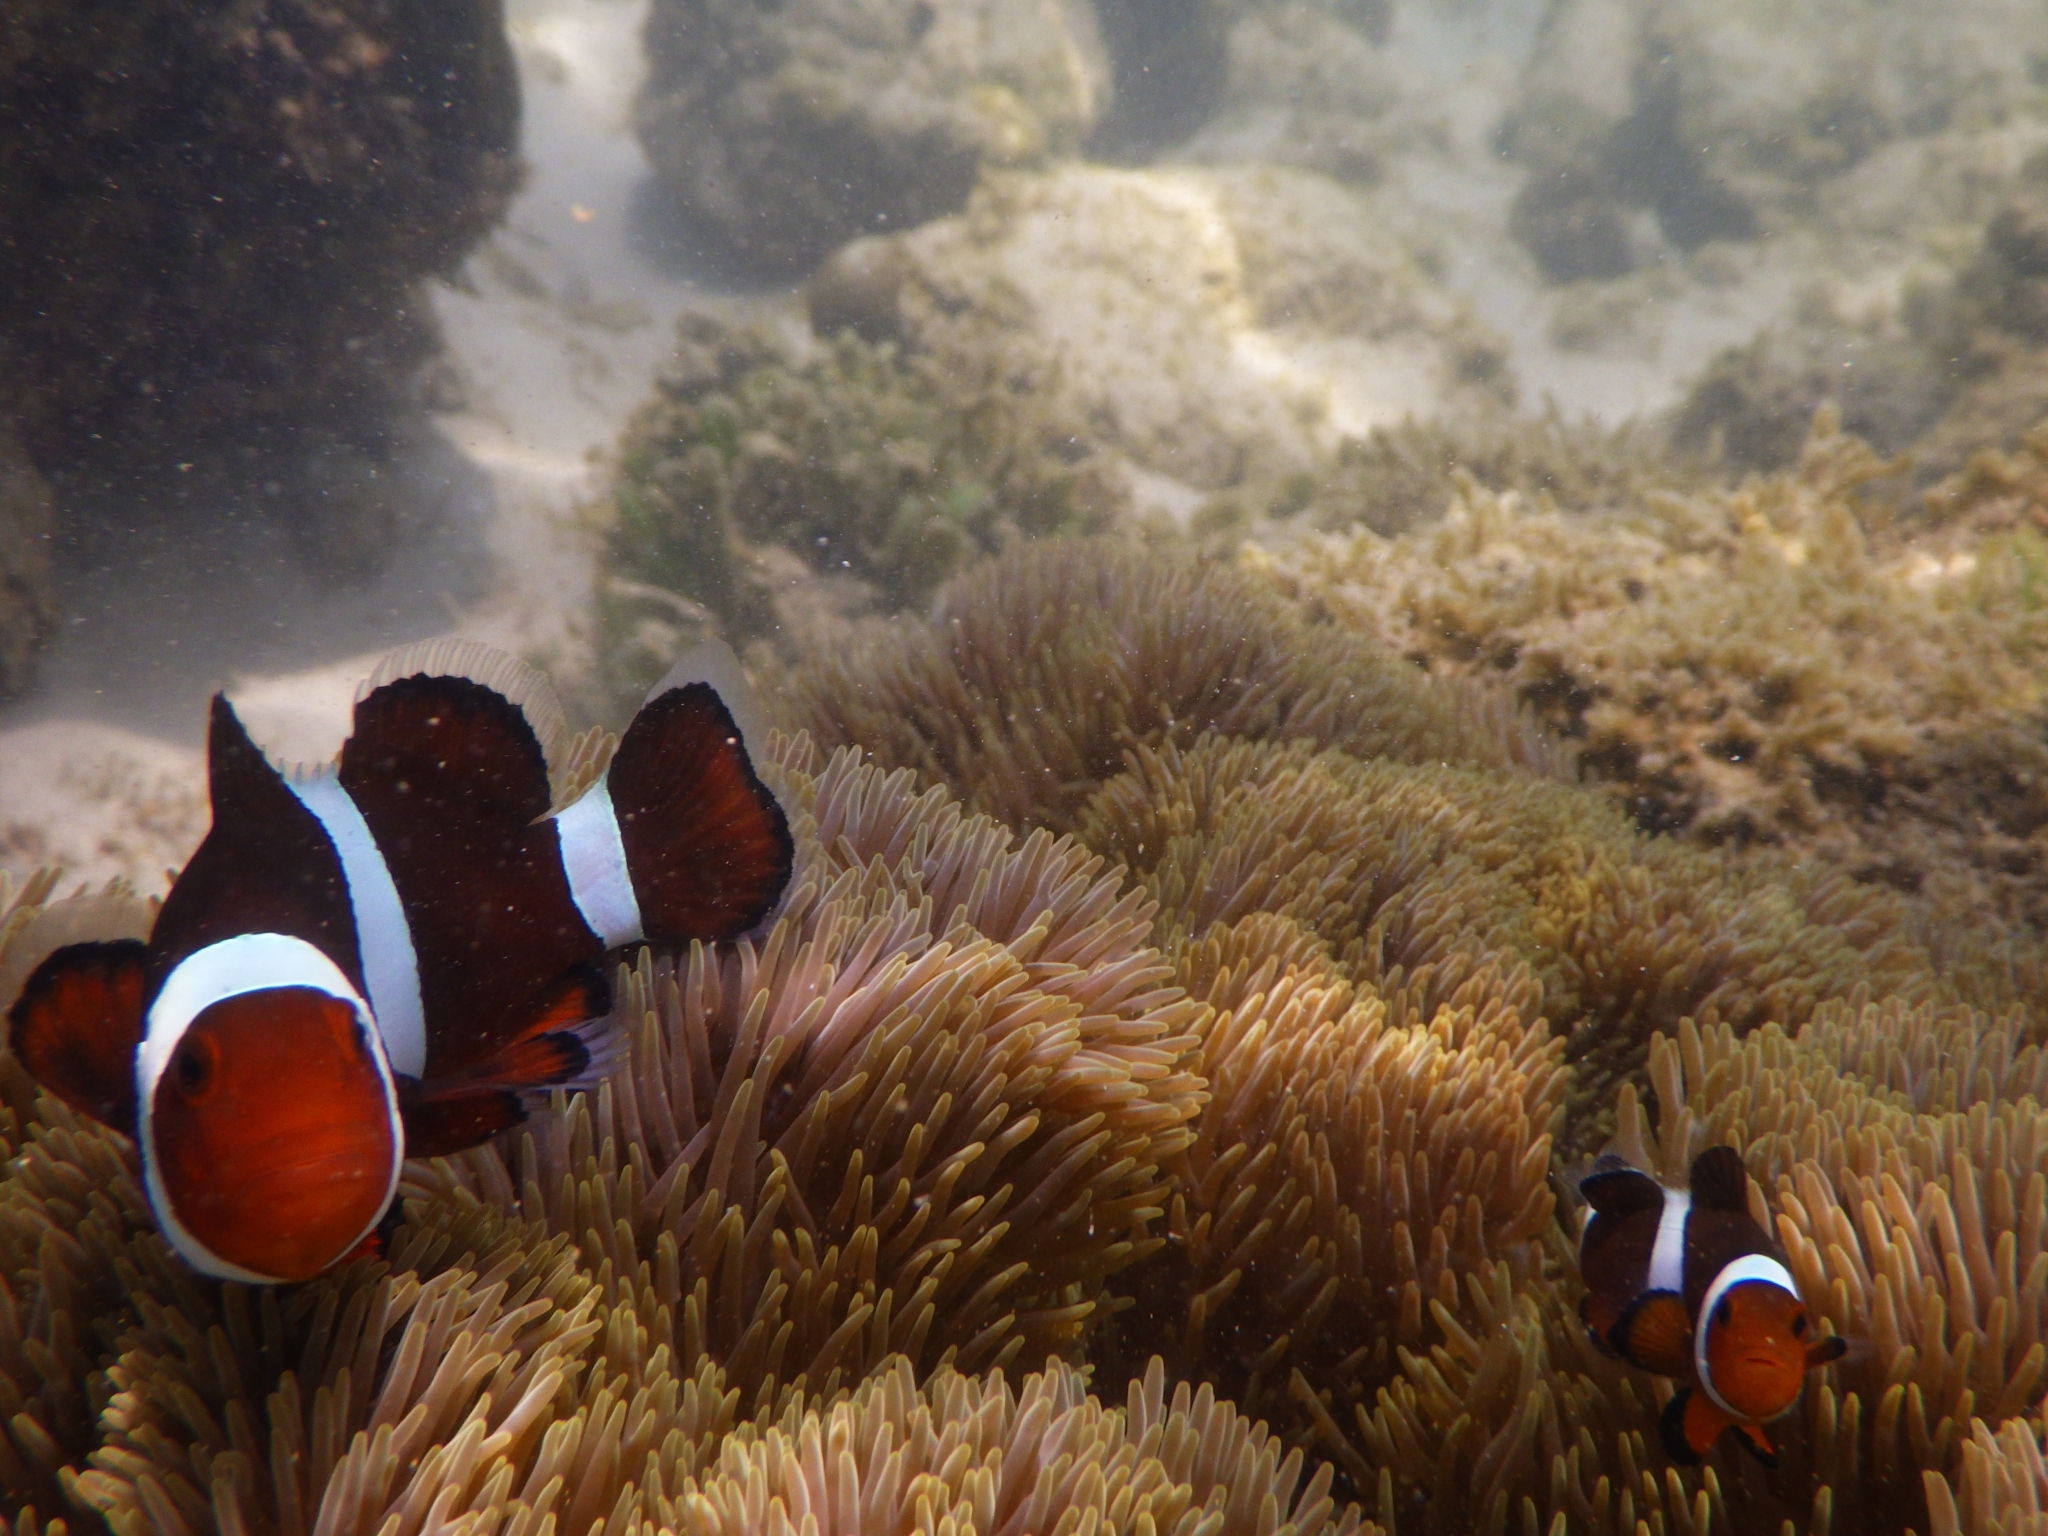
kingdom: Animalia
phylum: Chordata
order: Perciformes
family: Pomacentridae
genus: Amphiprion
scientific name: Amphiprion ocellaris
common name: Clown anemonefish
